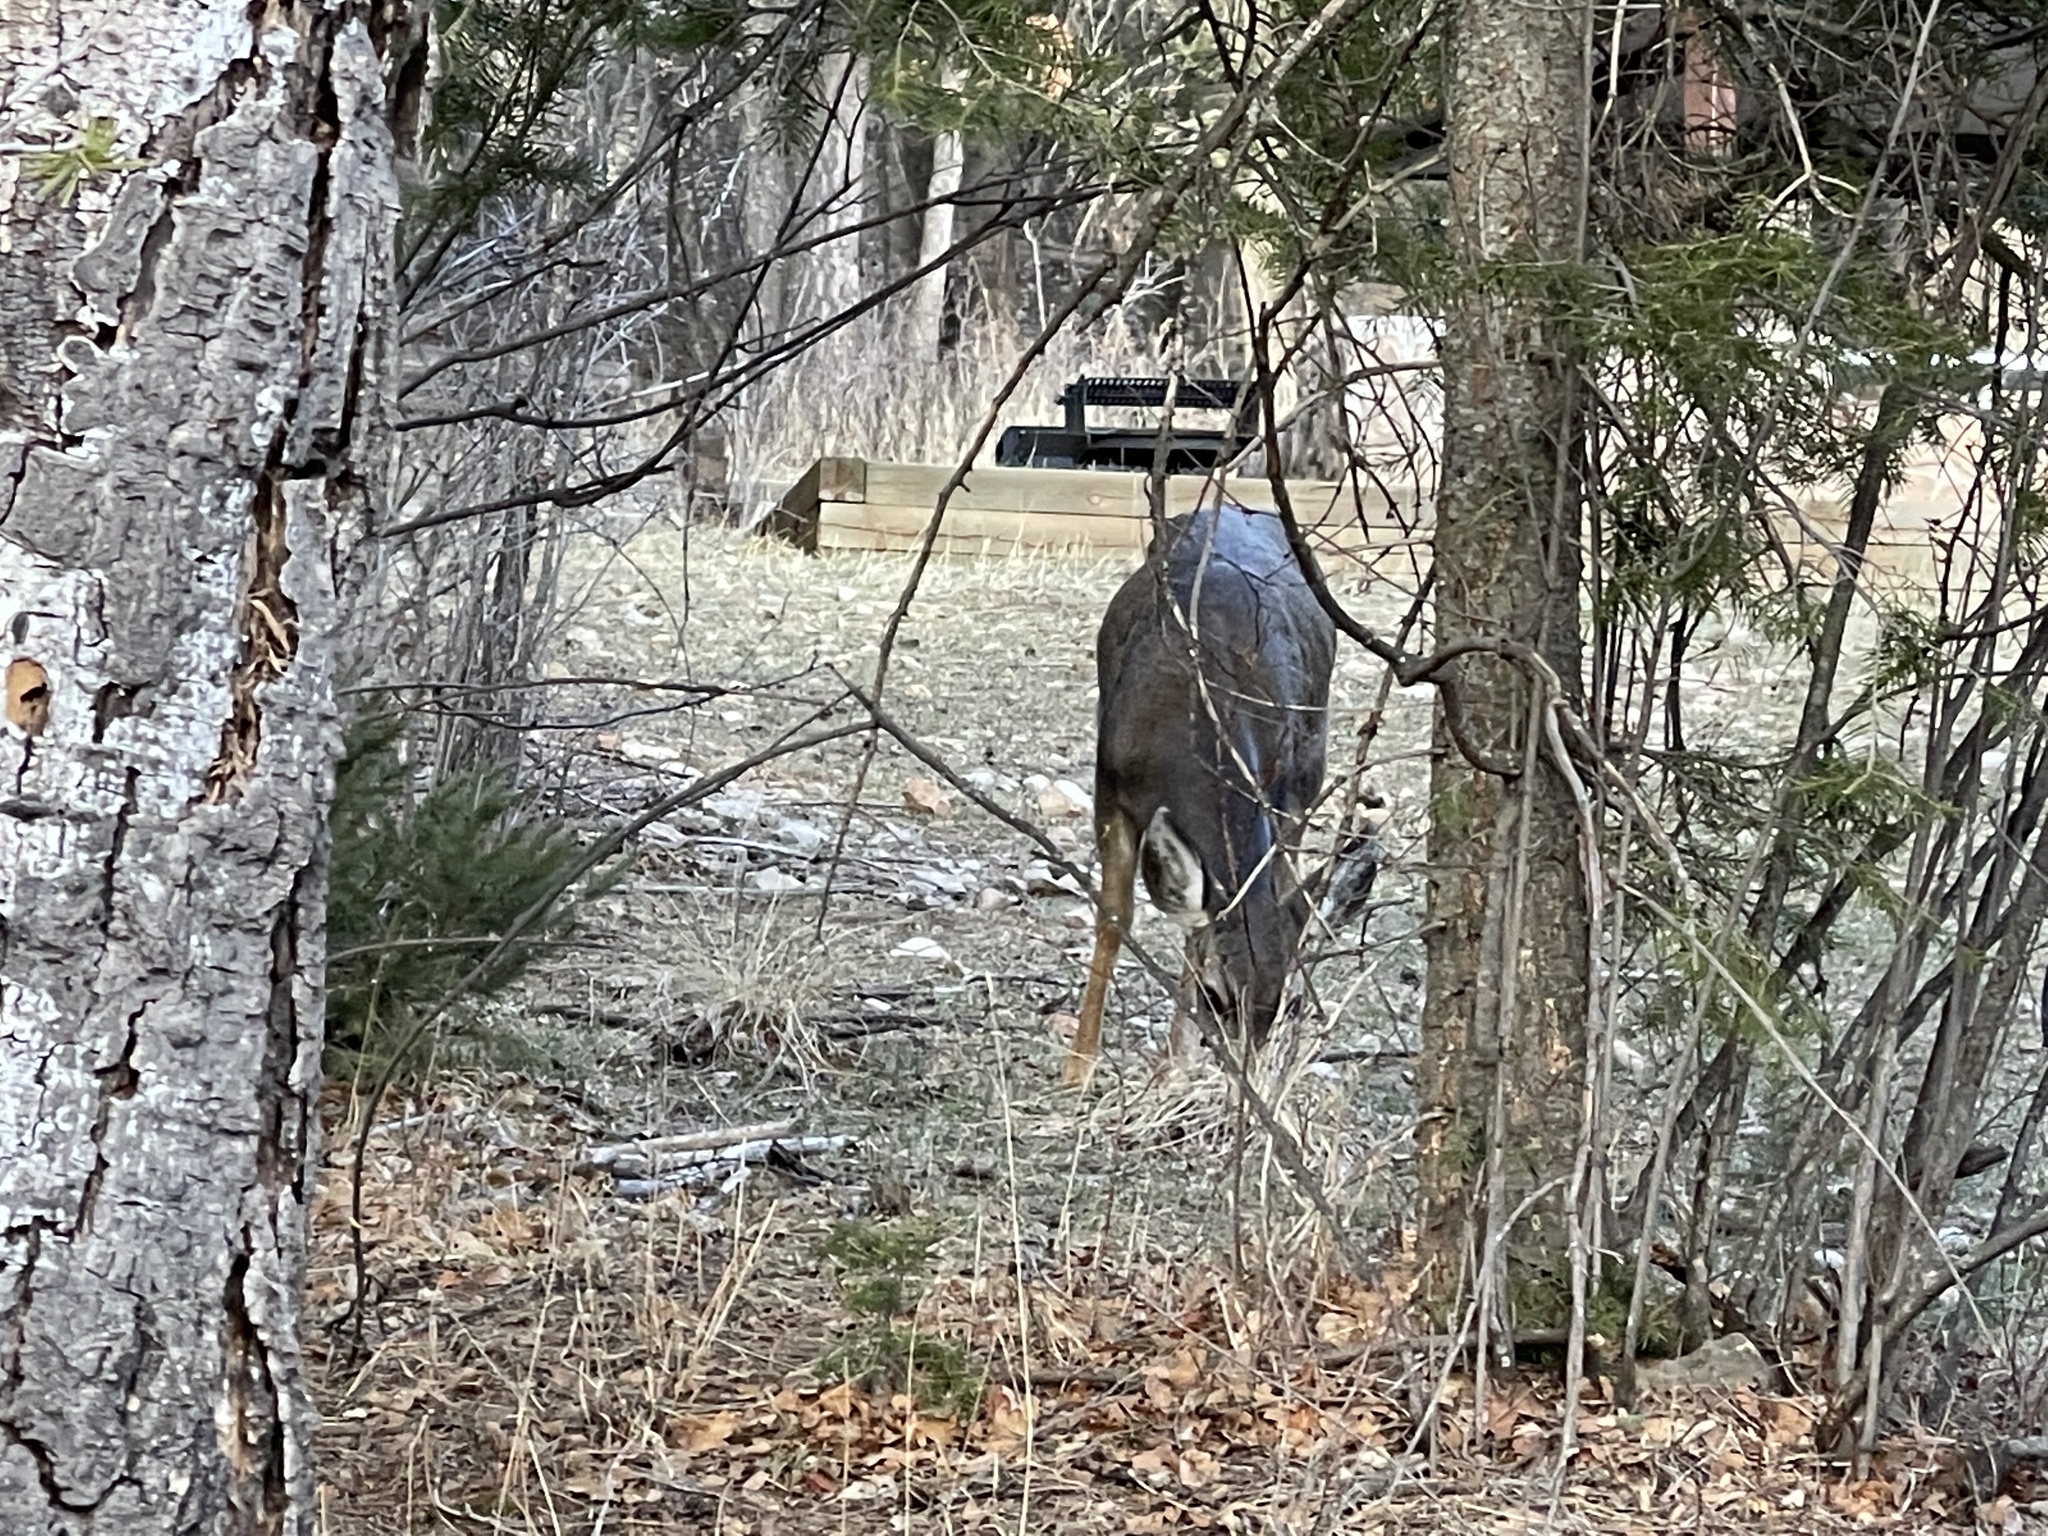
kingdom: Animalia
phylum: Chordata
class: Mammalia
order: Artiodactyla
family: Cervidae
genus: Odocoileus
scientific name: Odocoileus hemionus
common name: Mule deer
